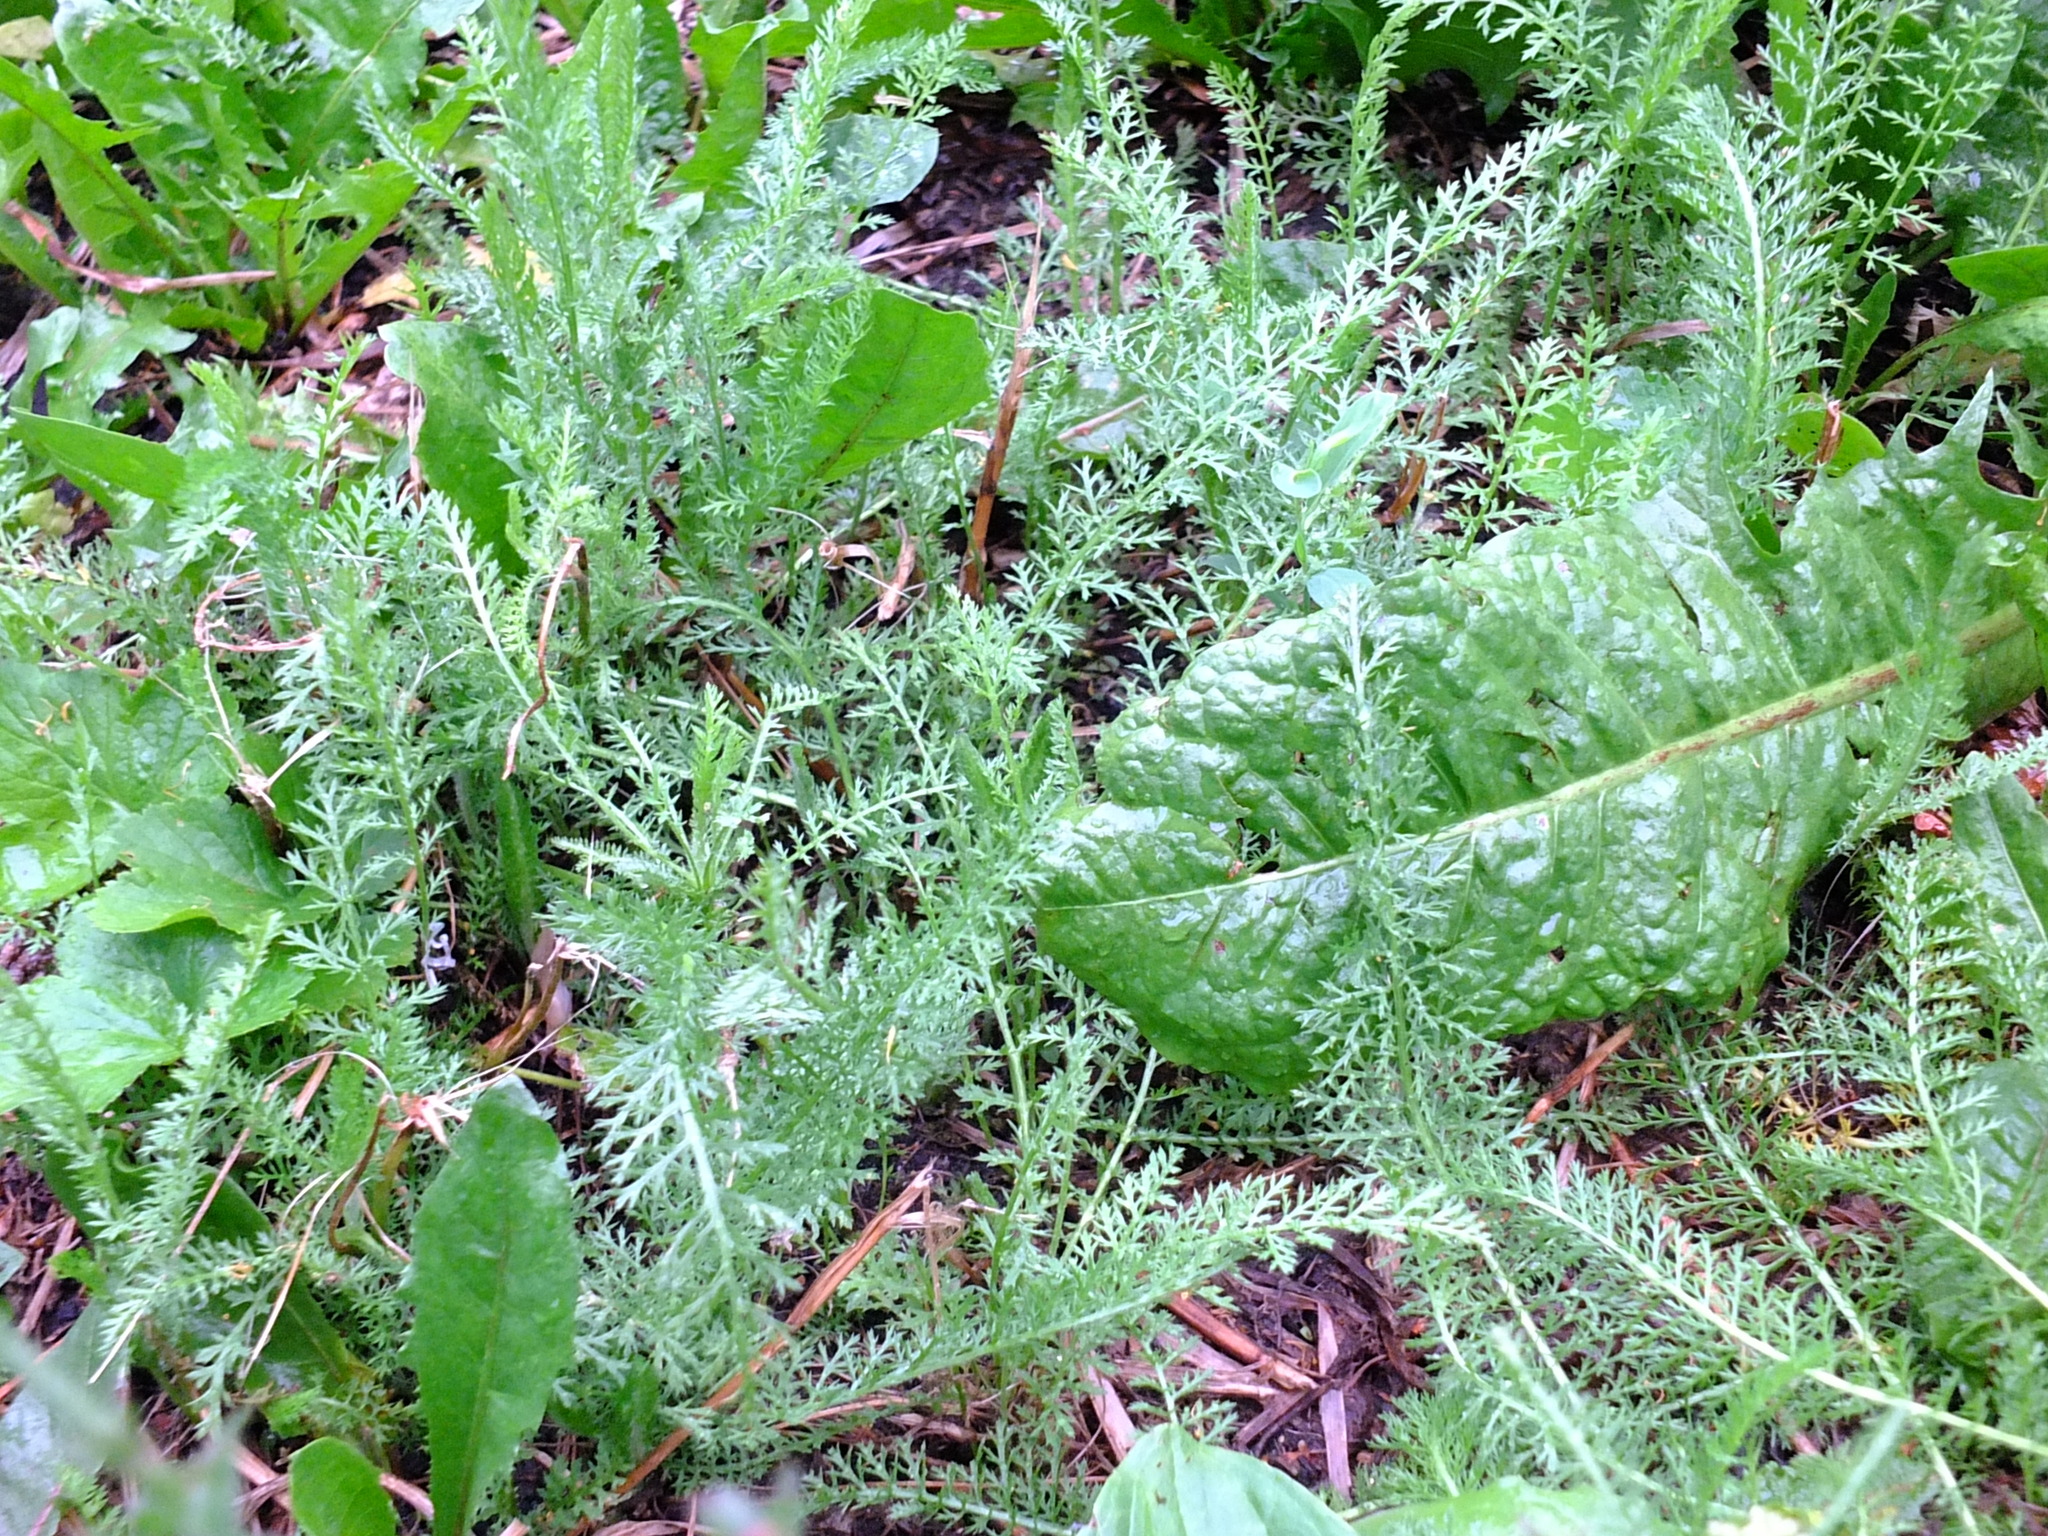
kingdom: Plantae
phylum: Tracheophyta
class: Magnoliopsida
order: Asterales
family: Asteraceae
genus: Achillea
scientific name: Achillea millefolium
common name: Yarrow
